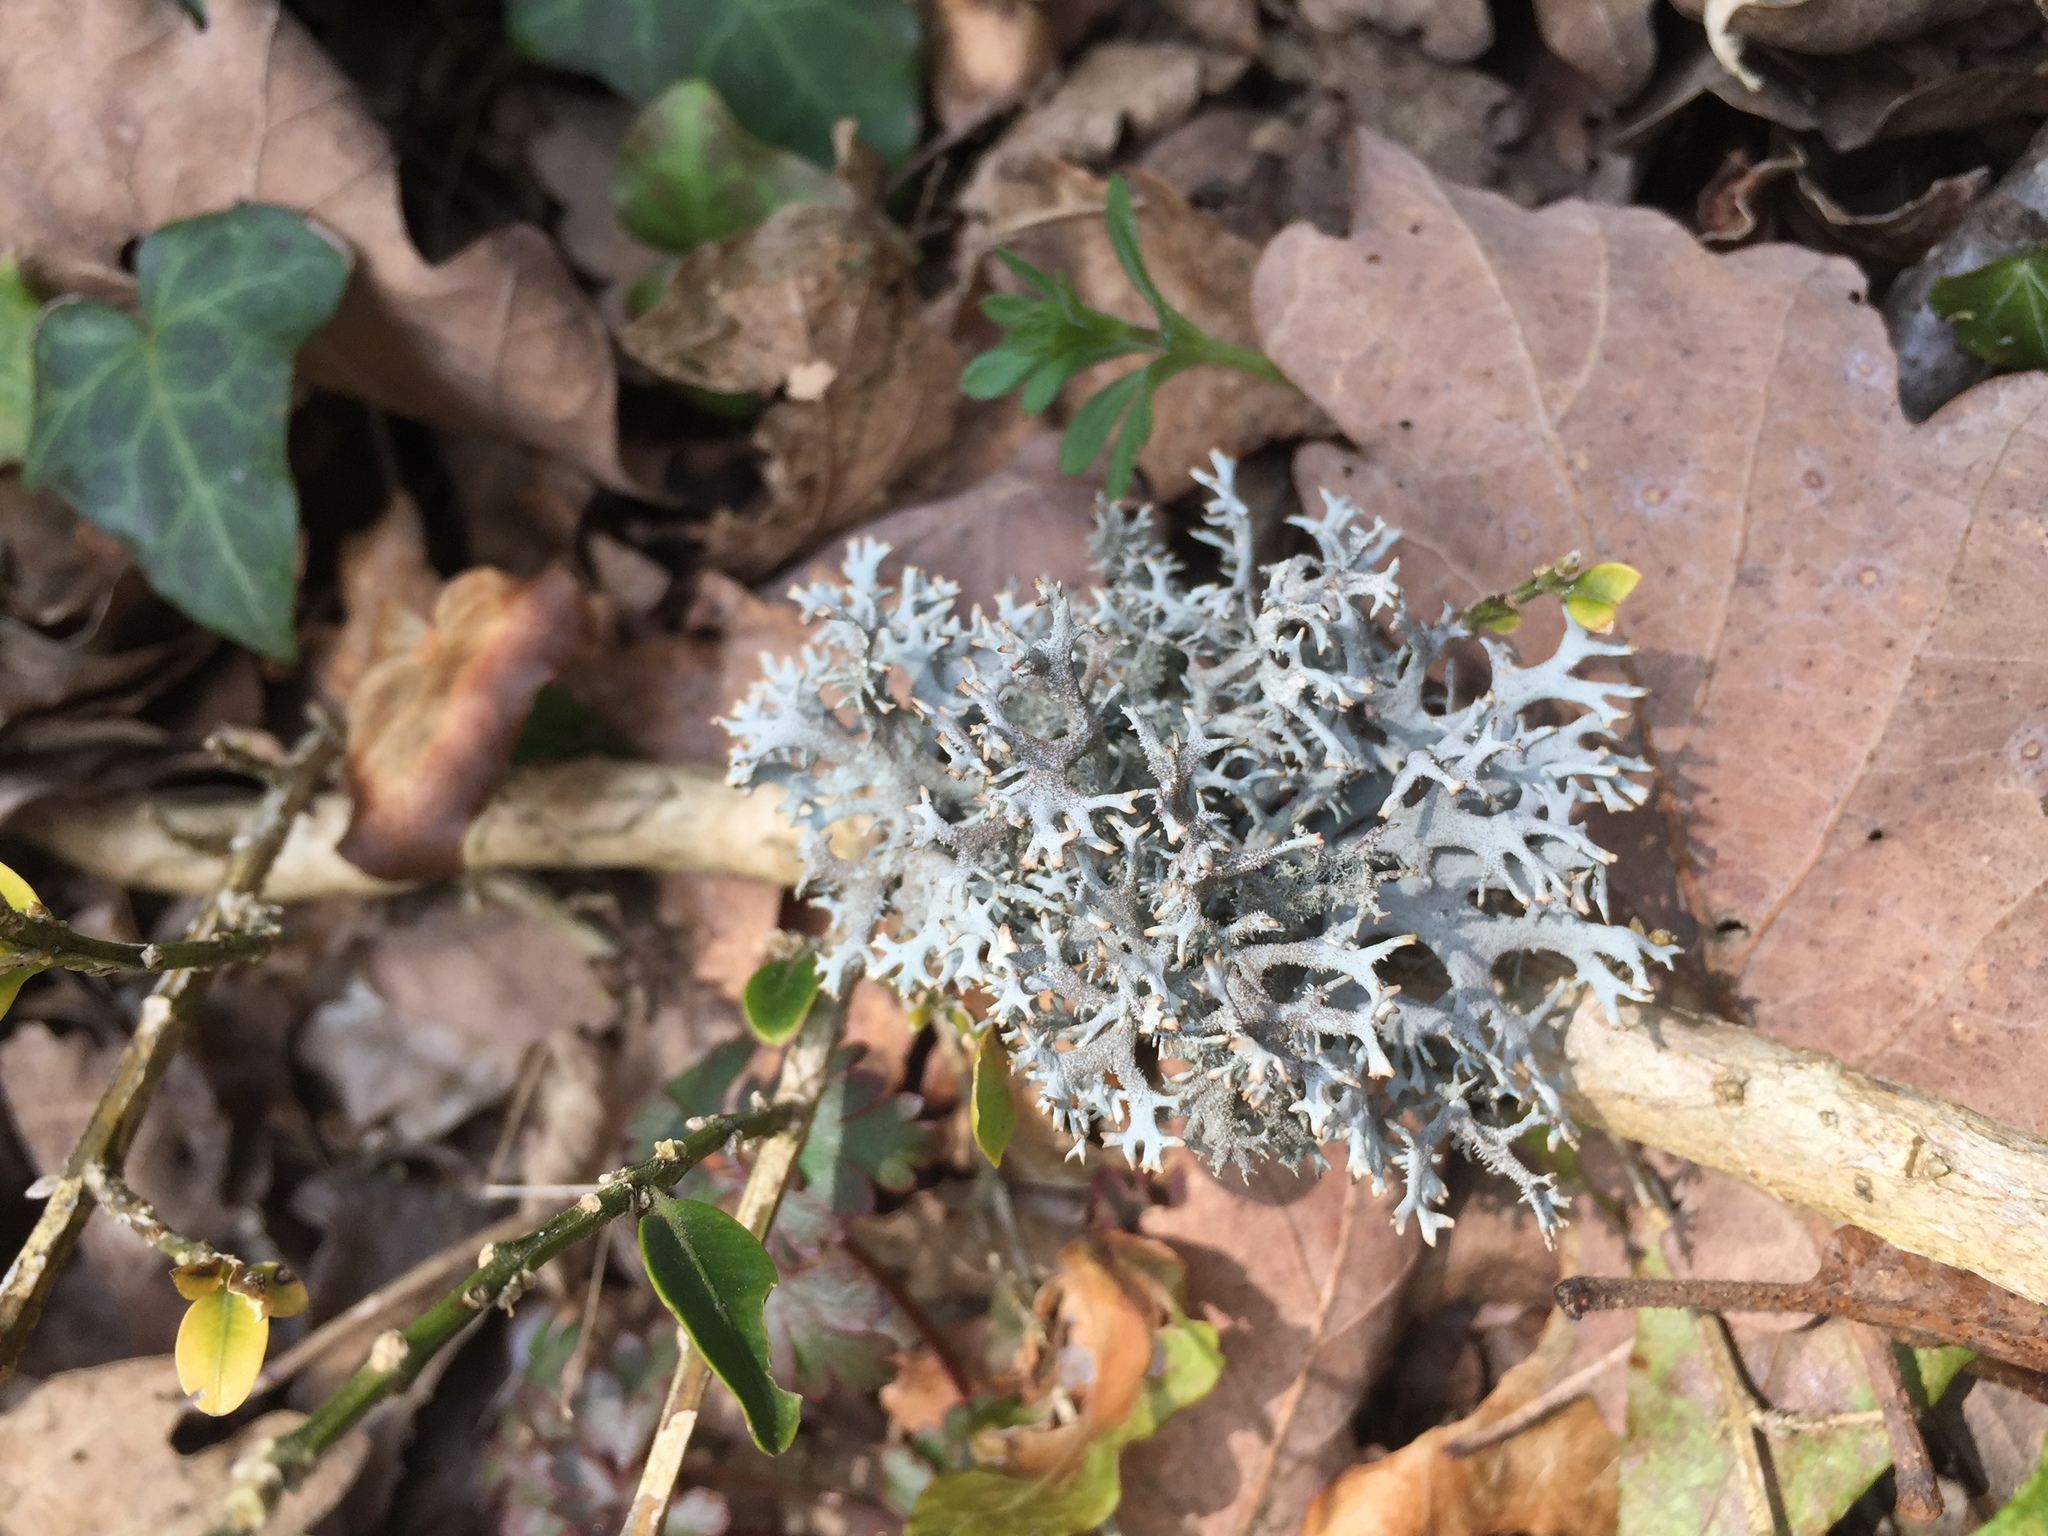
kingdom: Fungi
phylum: Ascomycota
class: Lecanoromycetes
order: Lecanorales
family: Parmeliaceae
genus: Pseudevernia
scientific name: Pseudevernia furfuracea
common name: Tree moss
